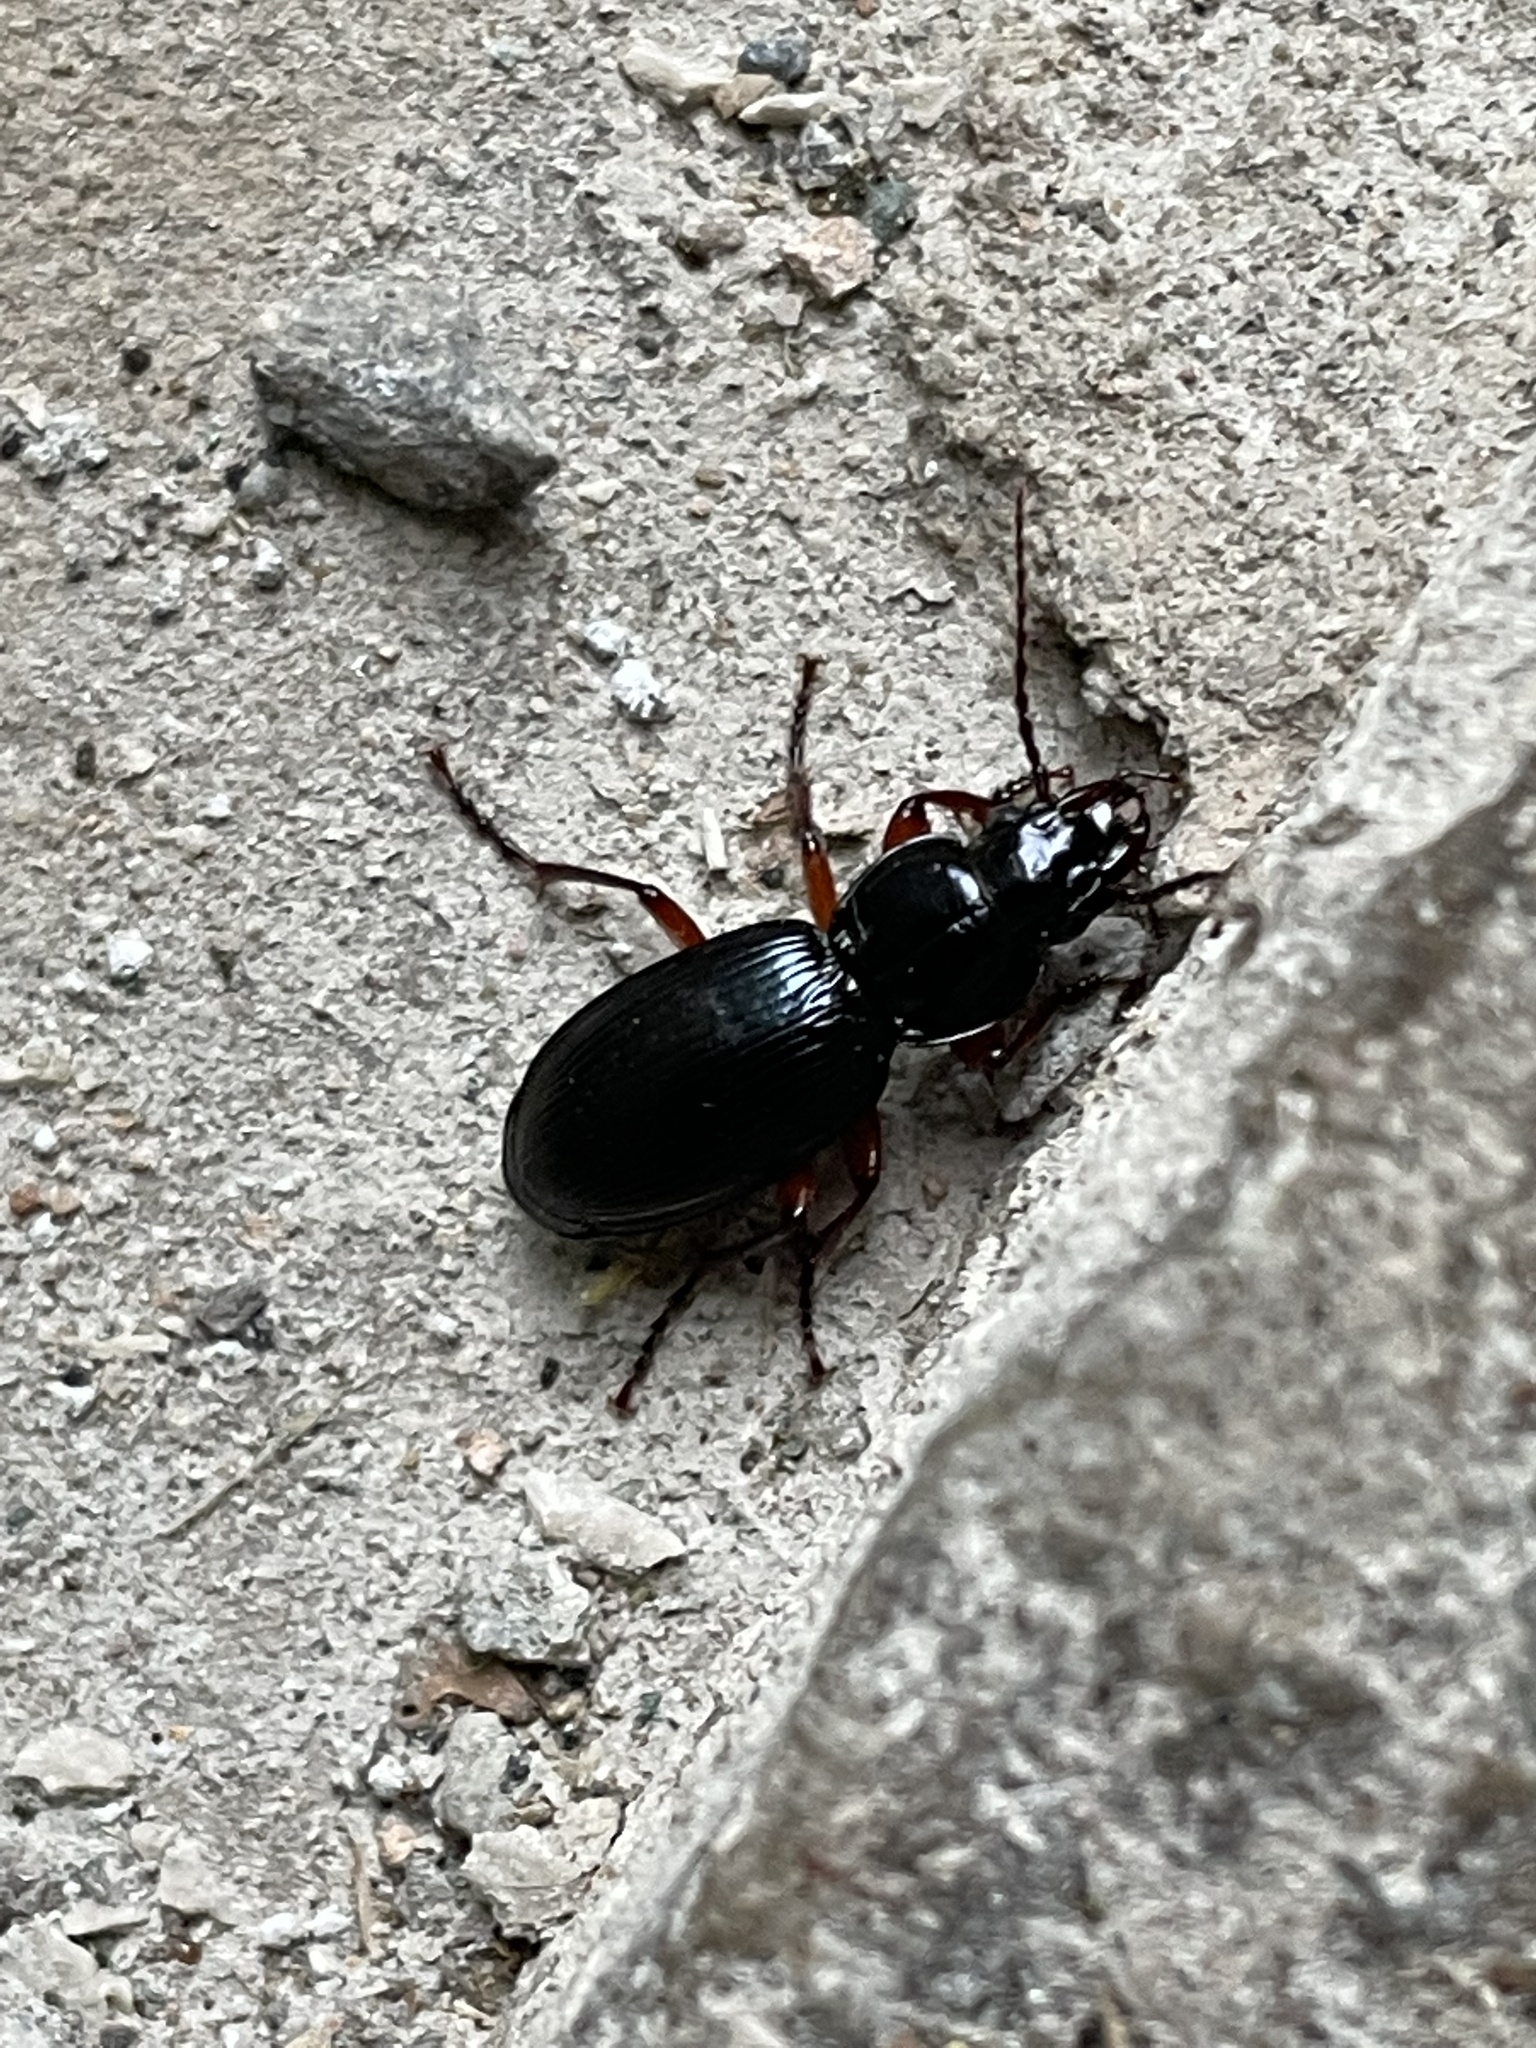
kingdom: Animalia
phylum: Arthropoda
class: Insecta
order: Coleoptera
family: Carabidae
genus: Pterostichus
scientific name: Pterostichus madidus
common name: Black clock
